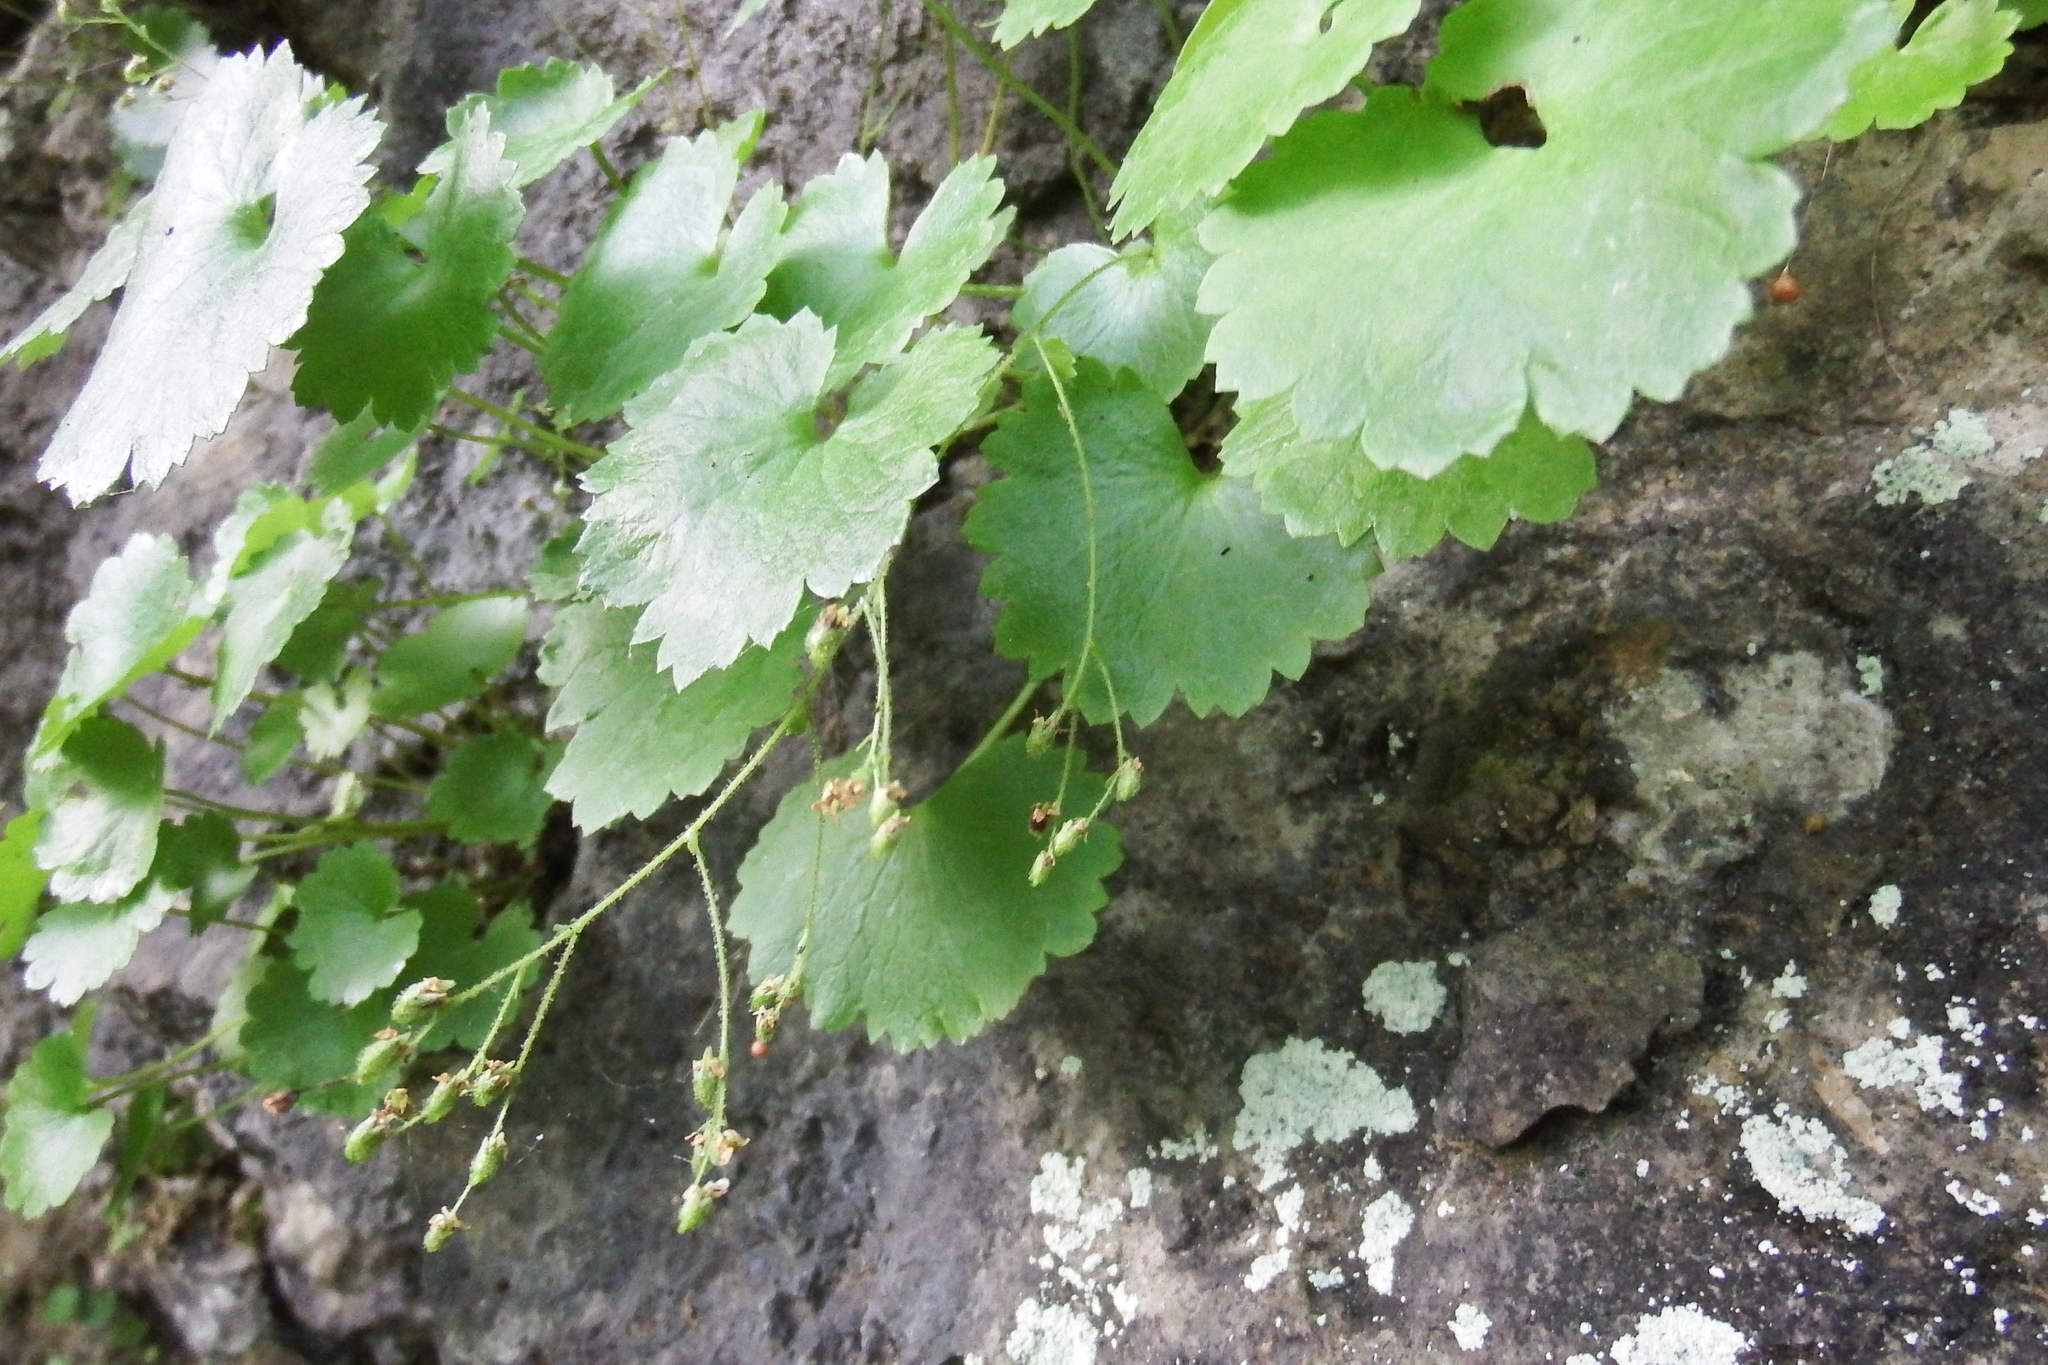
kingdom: Plantae
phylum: Tracheophyta
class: Magnoliopsida
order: Saxifragales
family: Saxifragaceae
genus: Sullivantia
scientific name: Sullivantia sullivantii
